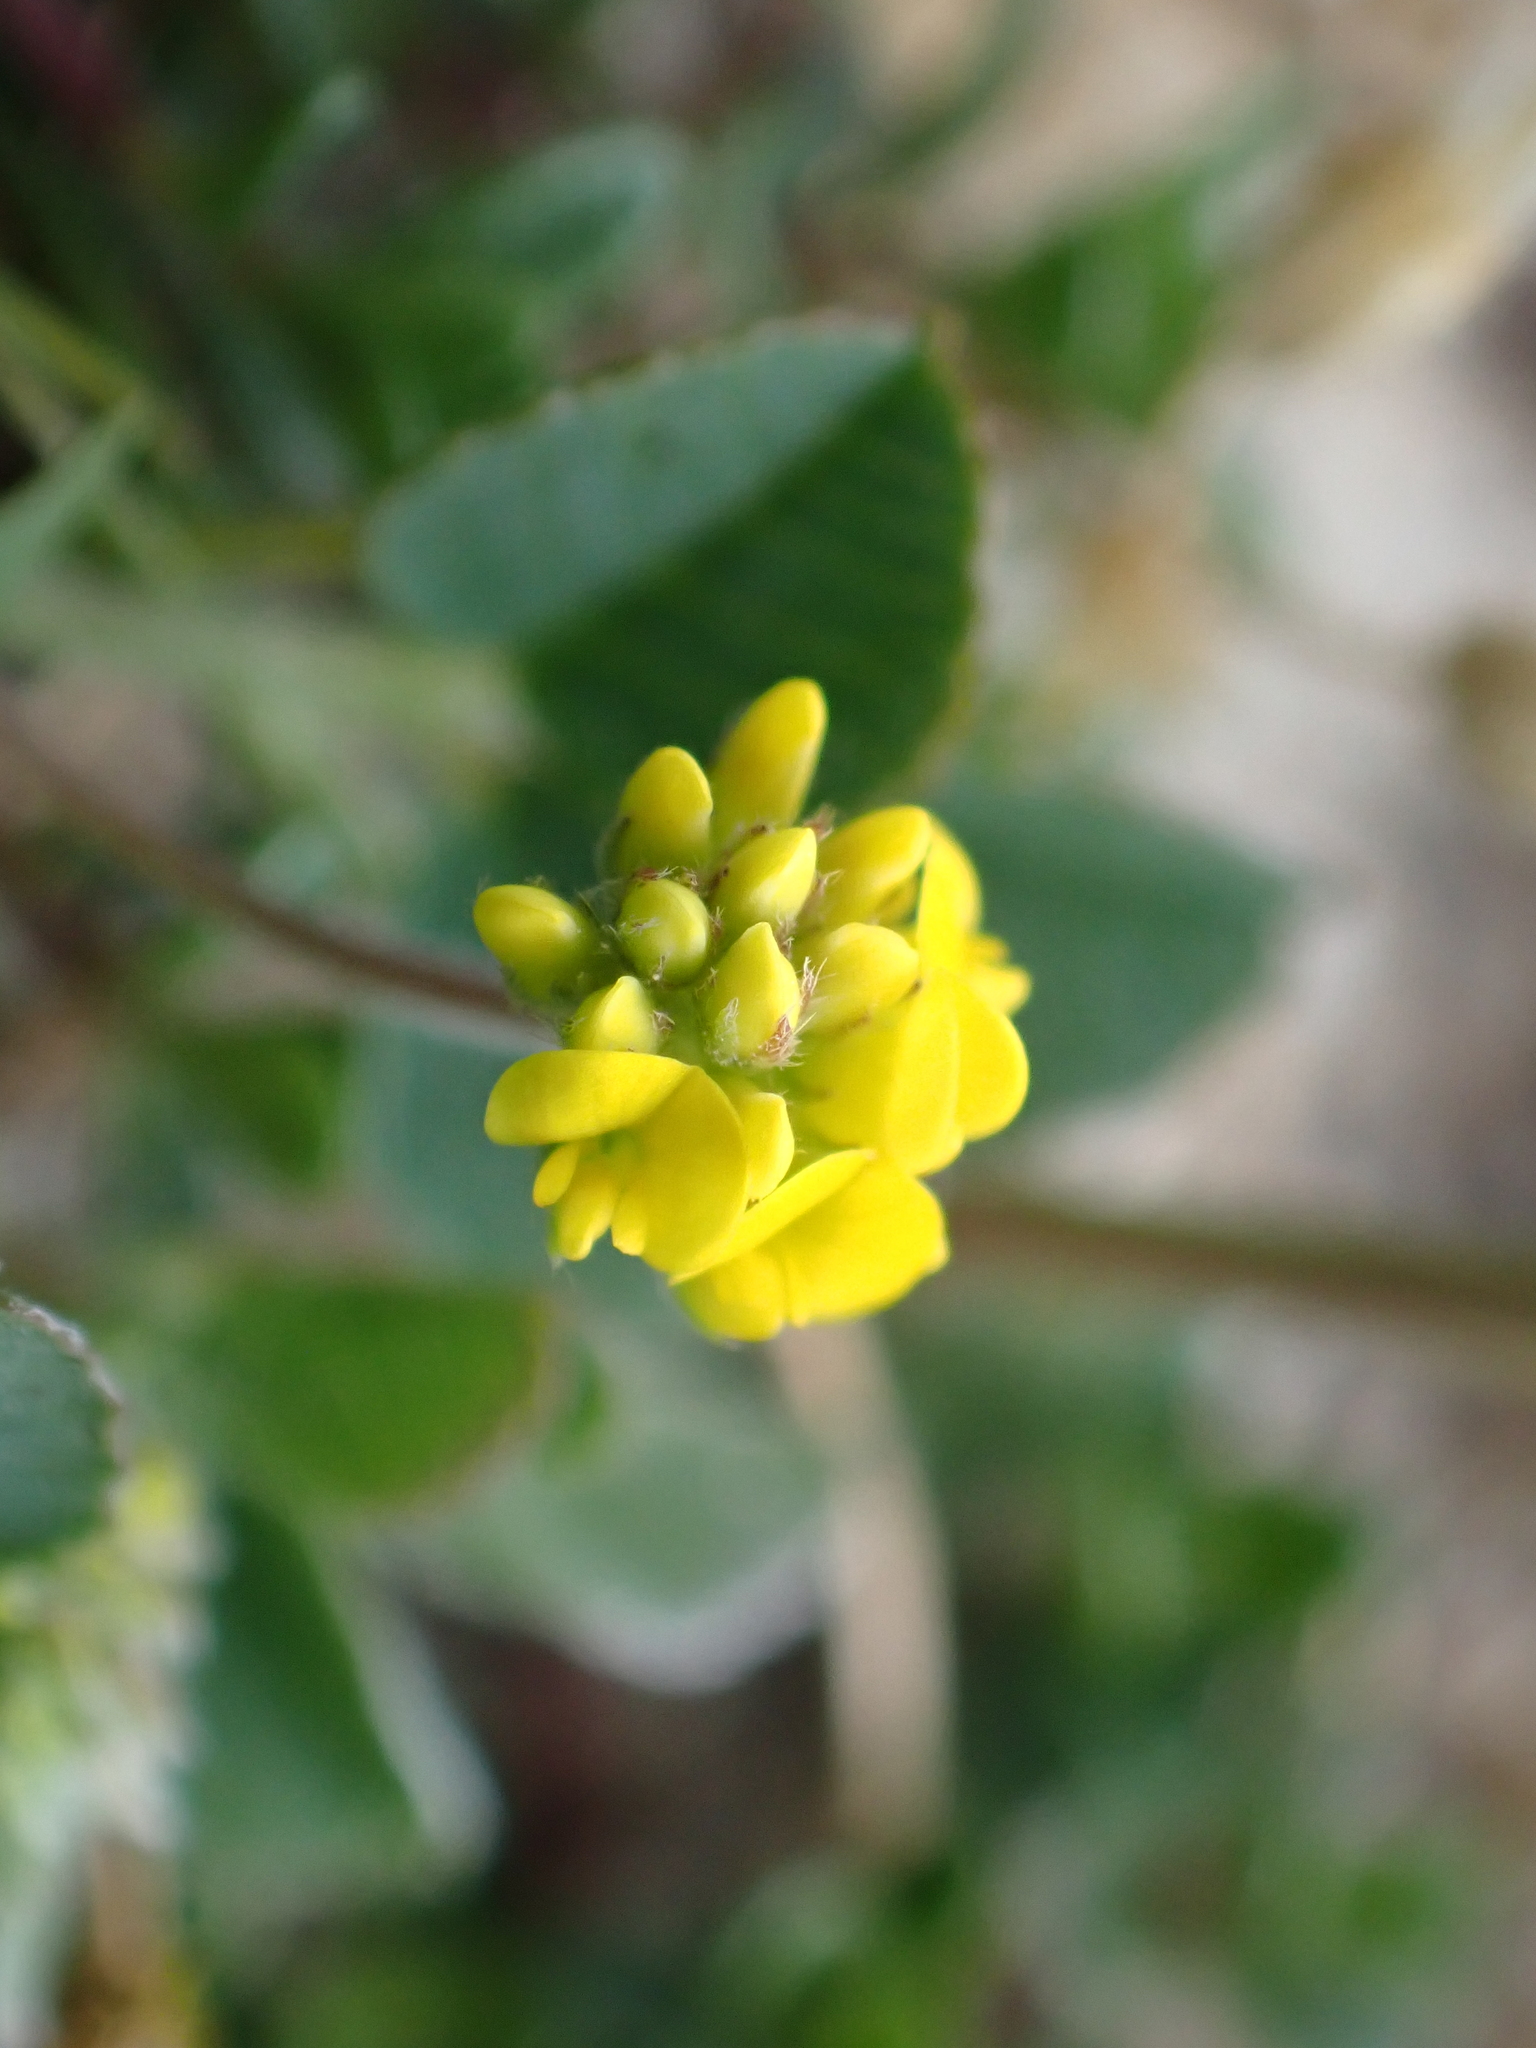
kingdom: Plantae
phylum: Tracheophyta
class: Magnoliopsida
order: Fabales
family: Fabaceae
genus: Medicago
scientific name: Medicago lupulina
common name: Black medick
